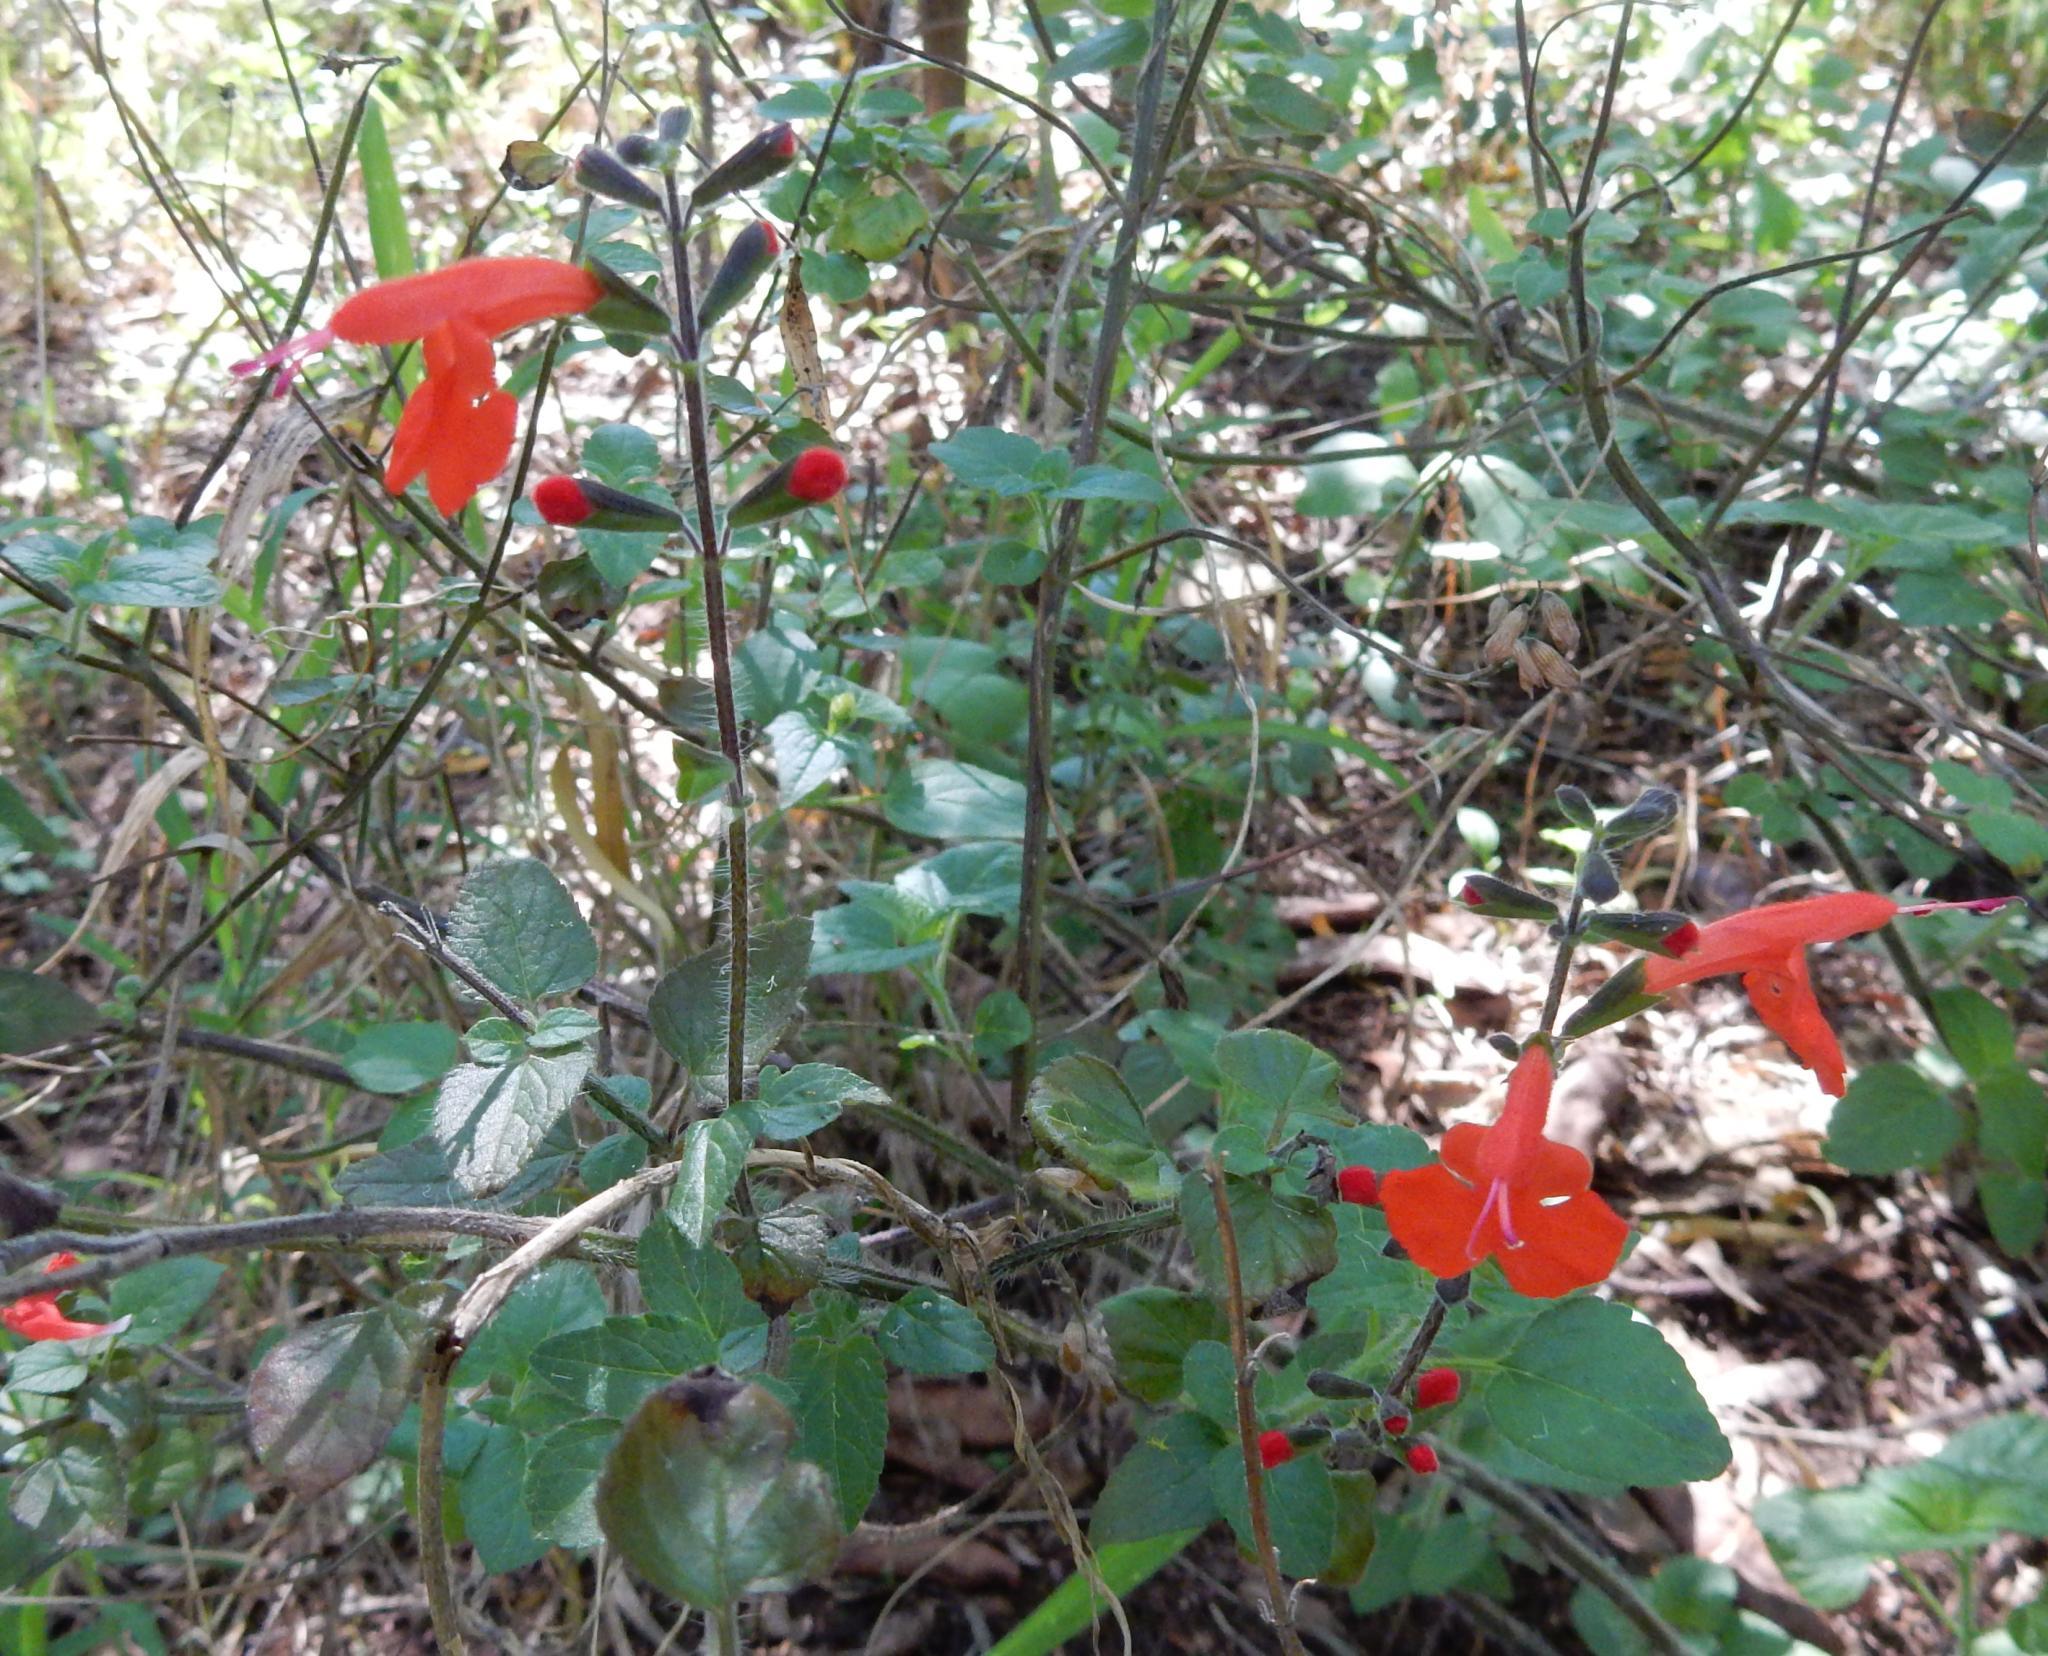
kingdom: Plantae
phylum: Tracheophyta
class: Magnoliopsida
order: Lamiales
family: Lamiaceae
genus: Salvia
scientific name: Salvia coccinea
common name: Blood sage
